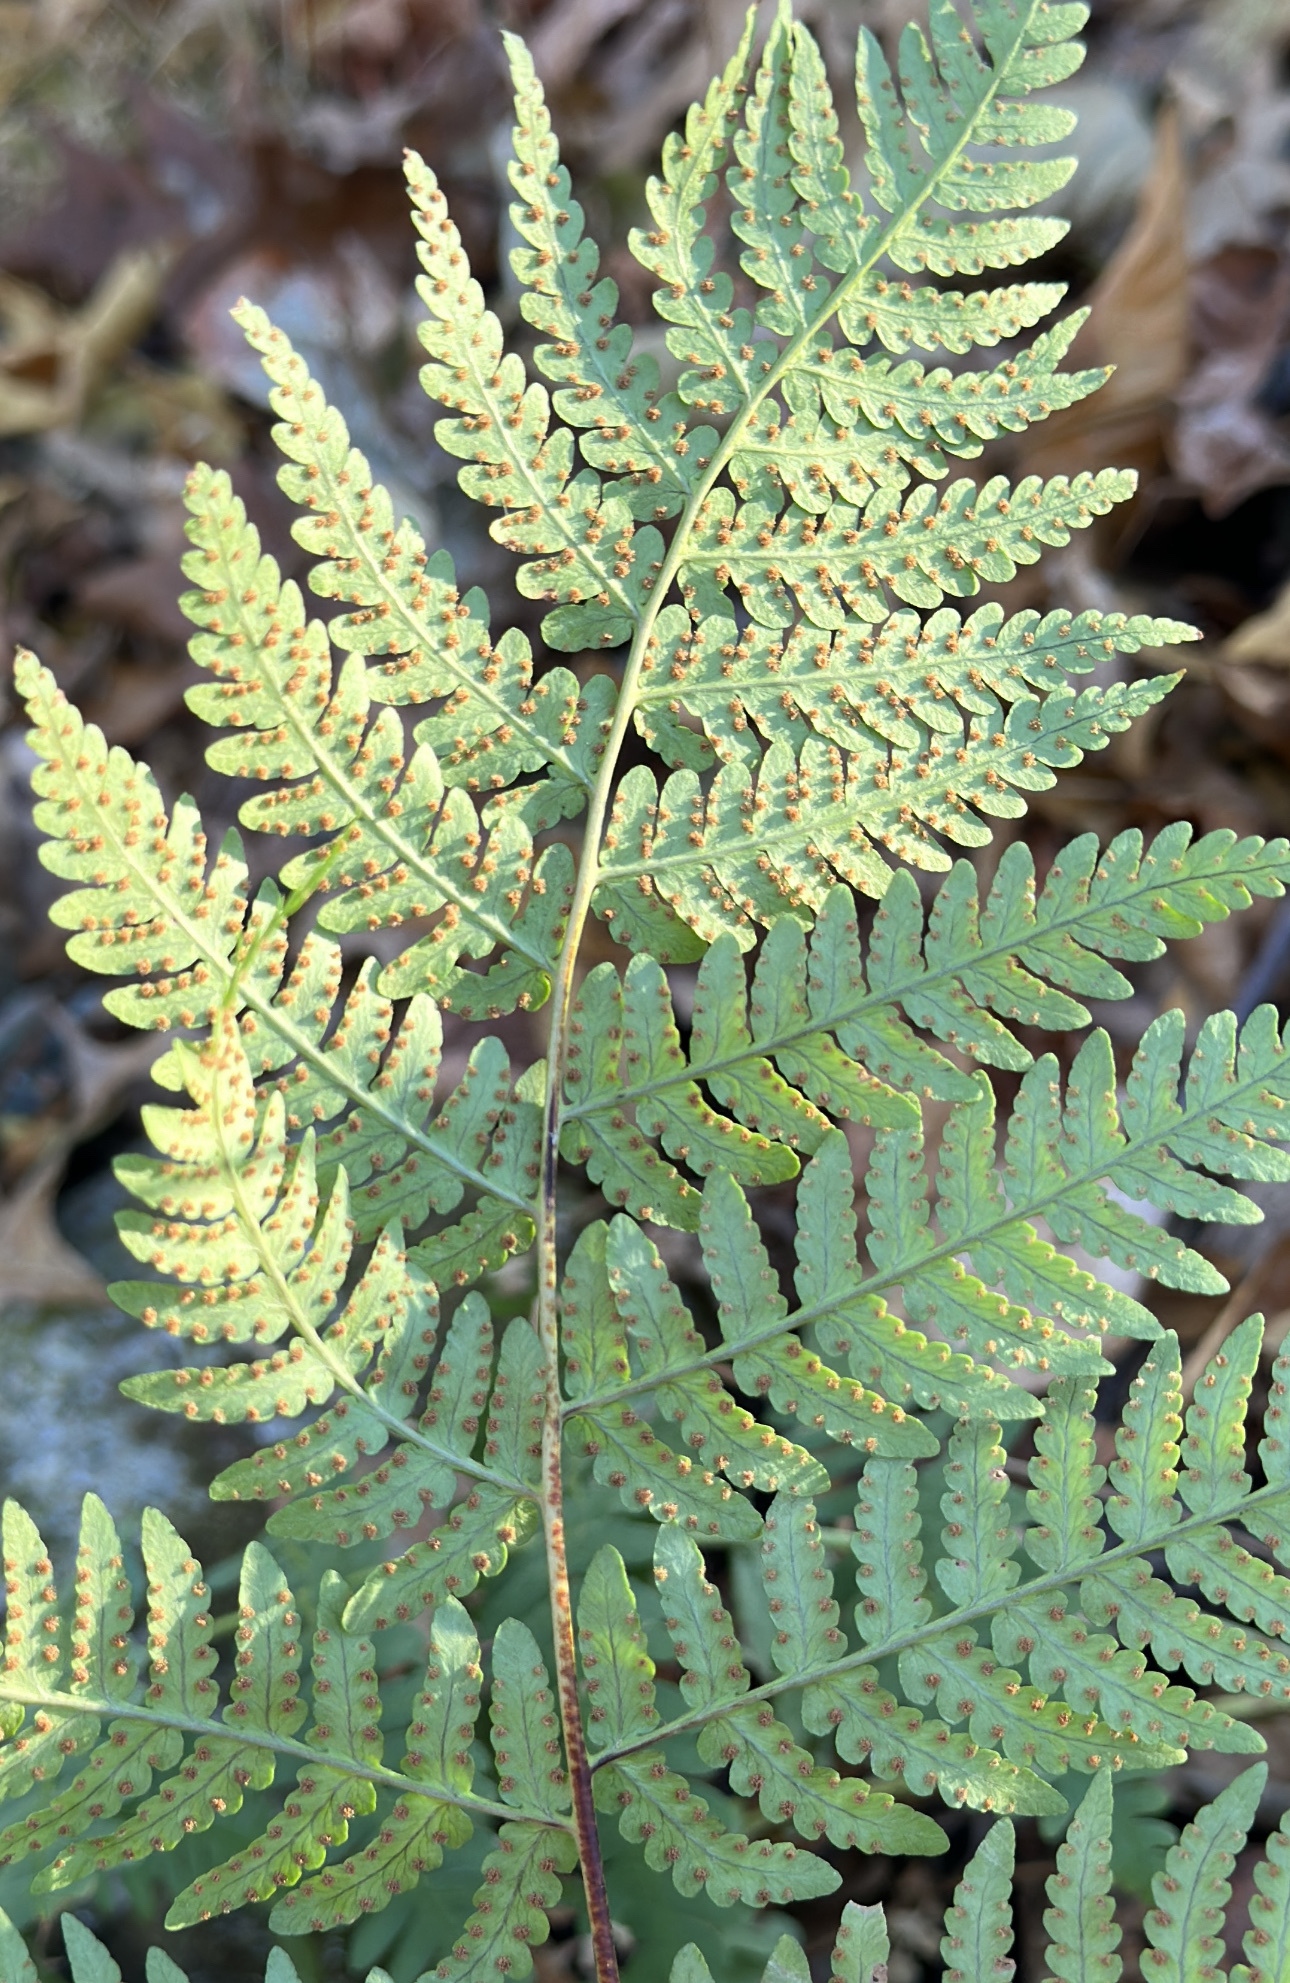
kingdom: Plantae
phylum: Tracheophyta
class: Polypodiopsida
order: Polypodiales
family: Dryopteridaceae
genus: Dryopteris
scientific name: Dryopteris marginalis
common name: Marginal wood fern
